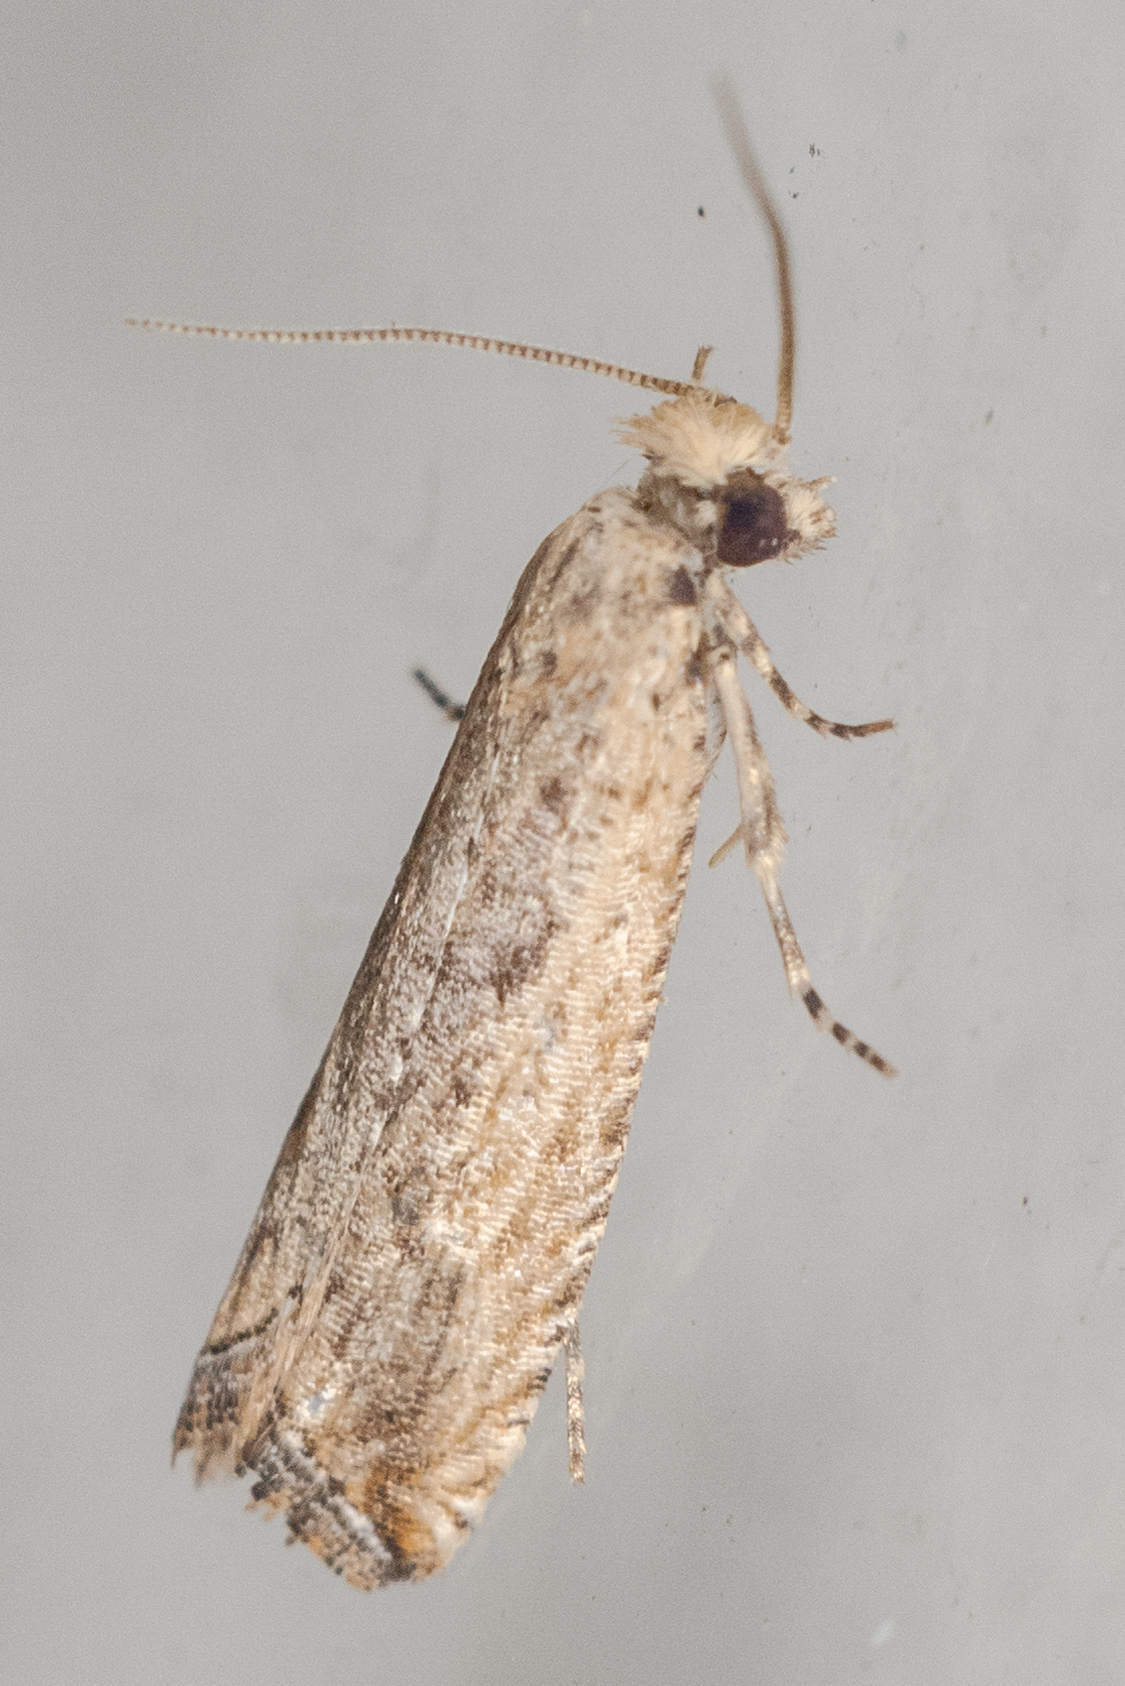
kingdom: Animalia
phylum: Arthropoda
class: Insecta
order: Lepidoptera
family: Tortricidae
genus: Bactra
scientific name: Bactra verutana
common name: Javelin moth
